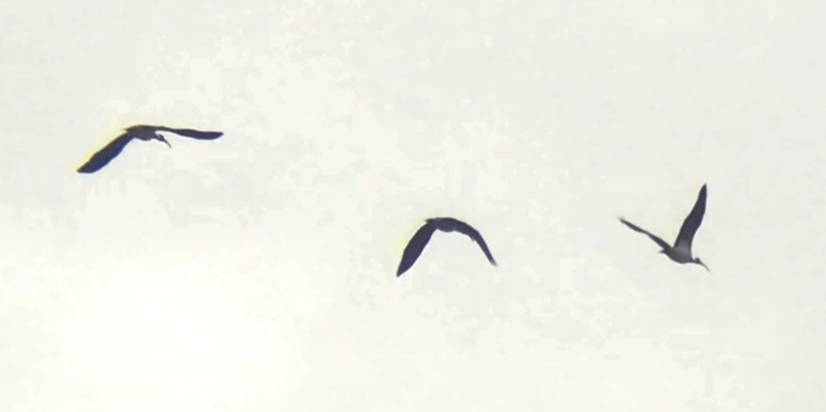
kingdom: Animalia
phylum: Chordata
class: Aves
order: Pelecaniformes
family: Threskiornithidae
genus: Threskiornis
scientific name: Threskiornis spinicollis
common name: Straw-necked ibis
